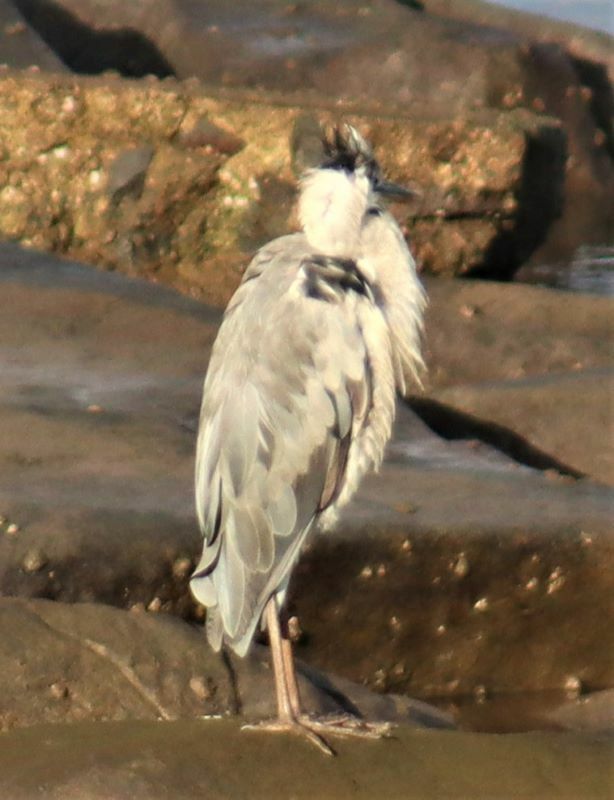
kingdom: Animalia
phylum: Chordata
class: Aves
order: Pelecaniformes
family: Ardeidae
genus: Ardea
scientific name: Ardea cinerea
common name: Grey heron
